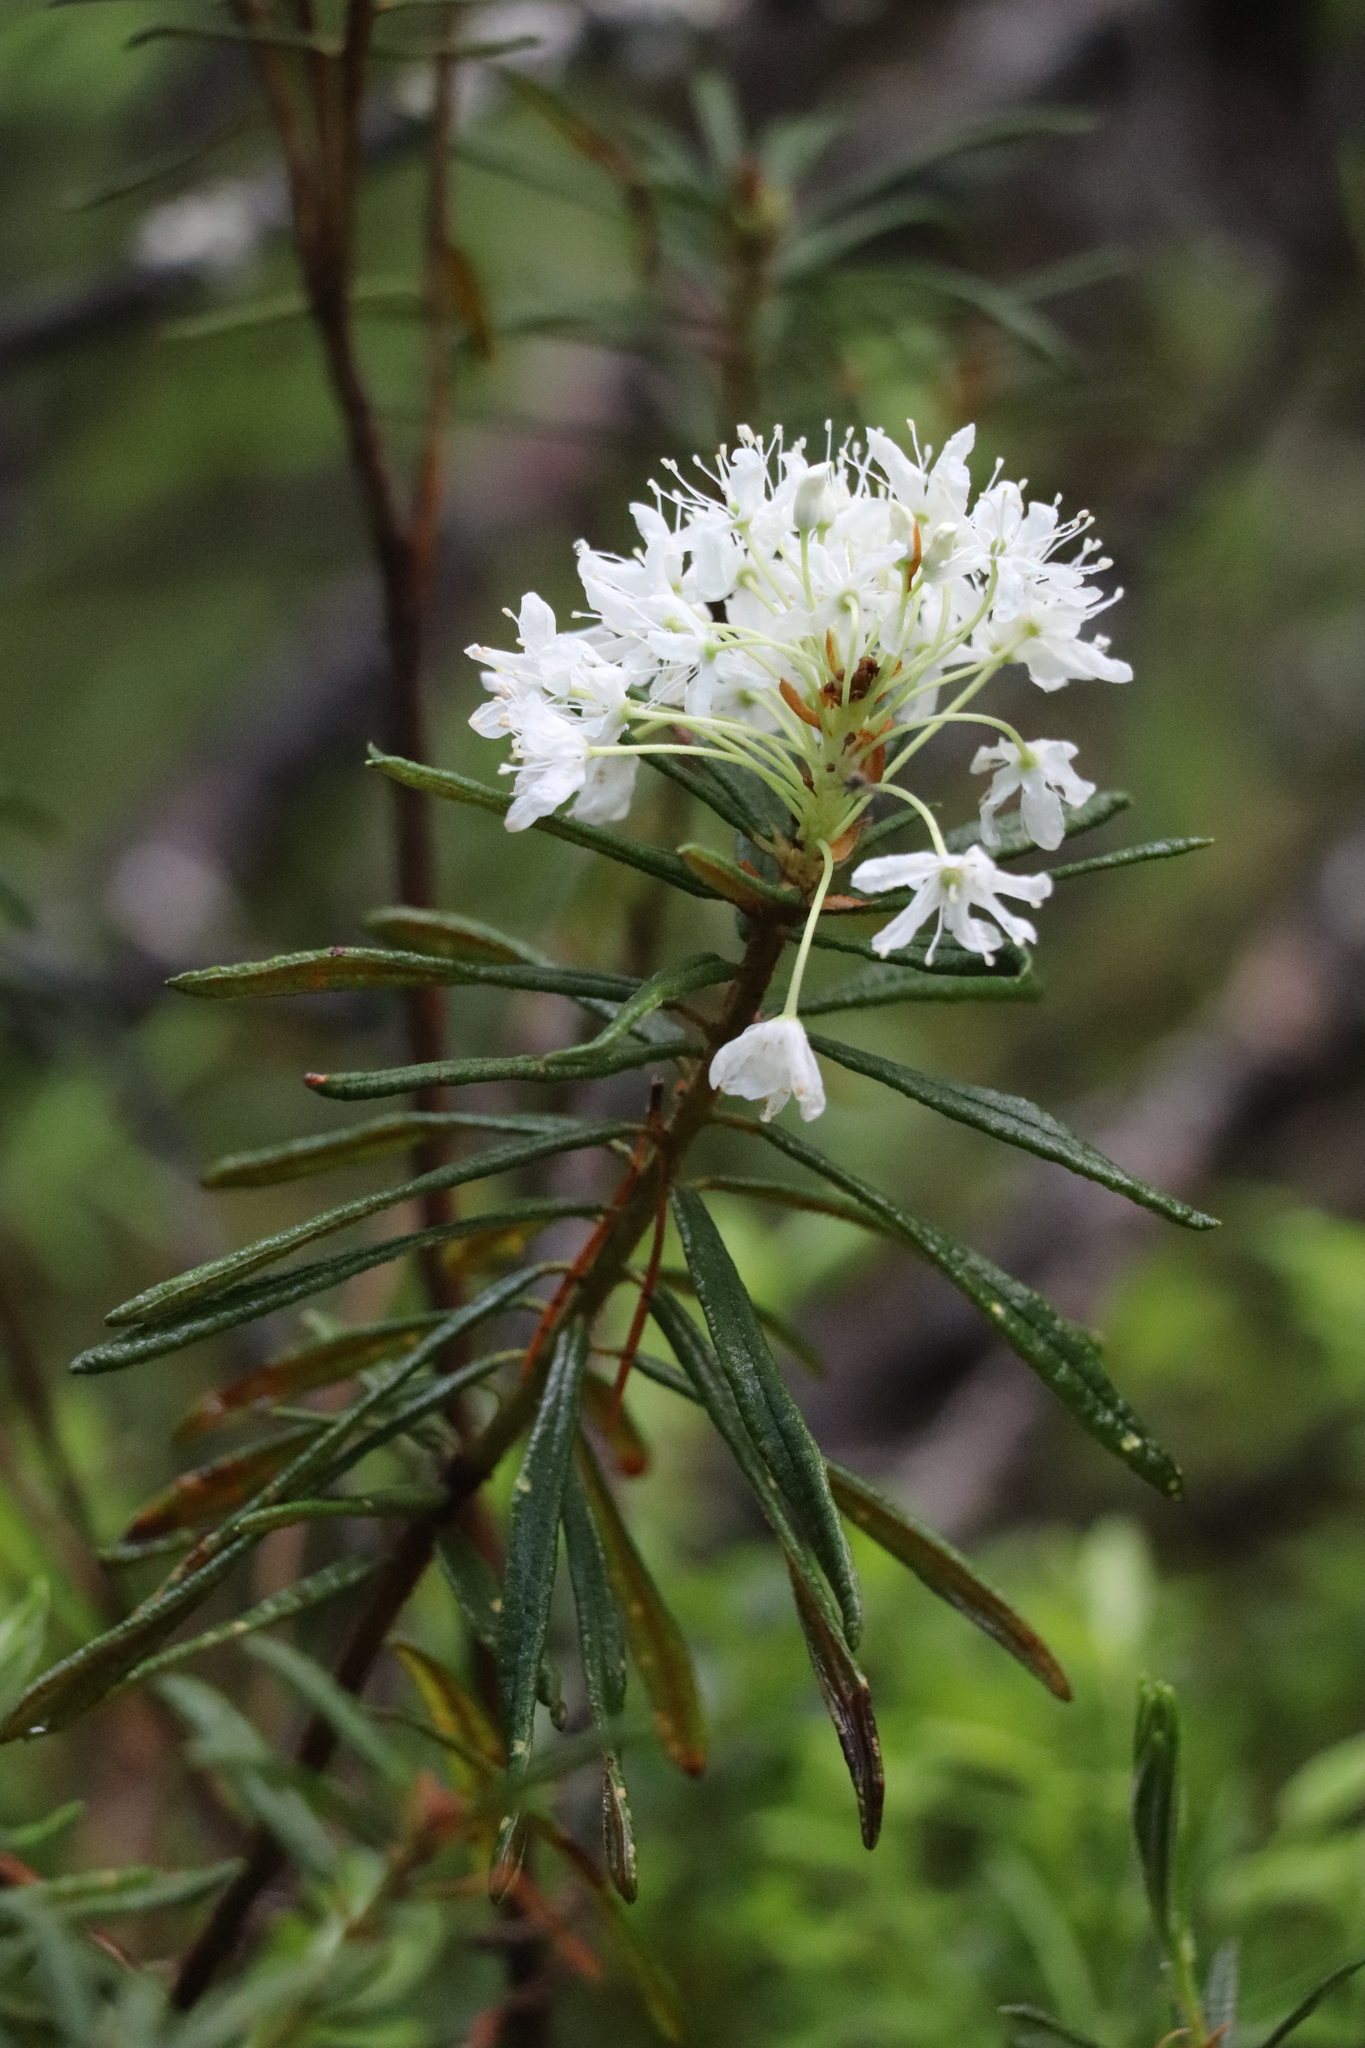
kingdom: Plantae
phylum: Tracheophyta
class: Magnoliopsida
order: Ericales
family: Ericaceae
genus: Rhododendron
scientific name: Rhododendron tomentosum
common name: Marsh labrador tea
